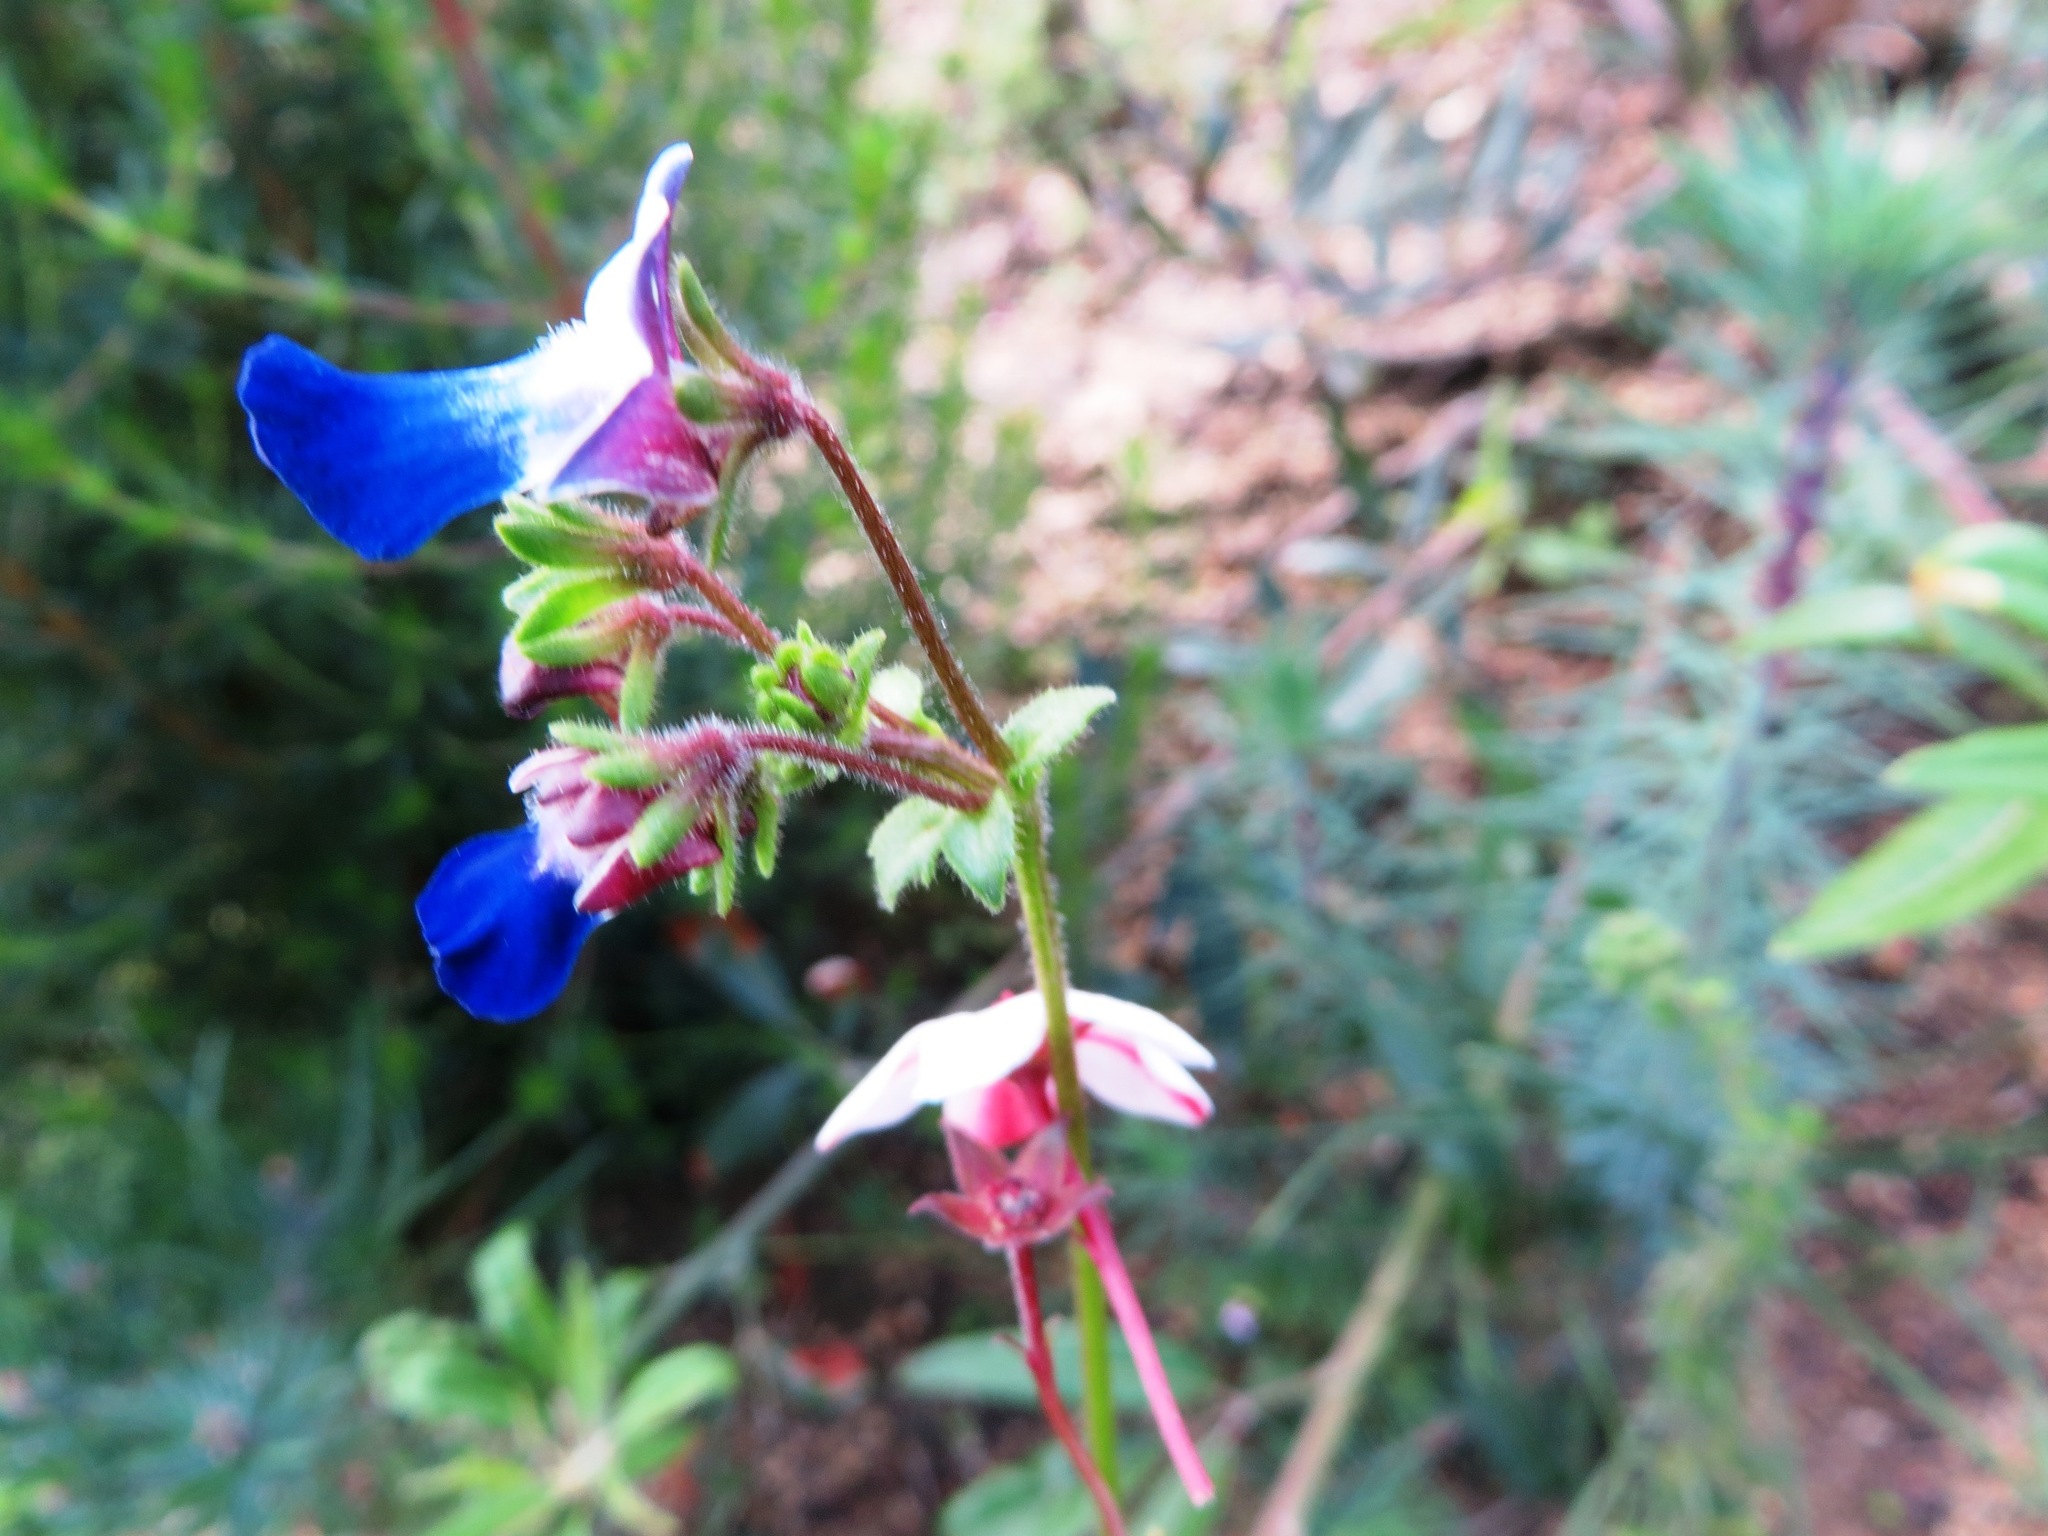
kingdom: Plantae
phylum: Tracheophyta
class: Magnoliopsida
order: Lamiales
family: Scrophulariaceae
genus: Nemesia
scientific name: Nemesia barbata
